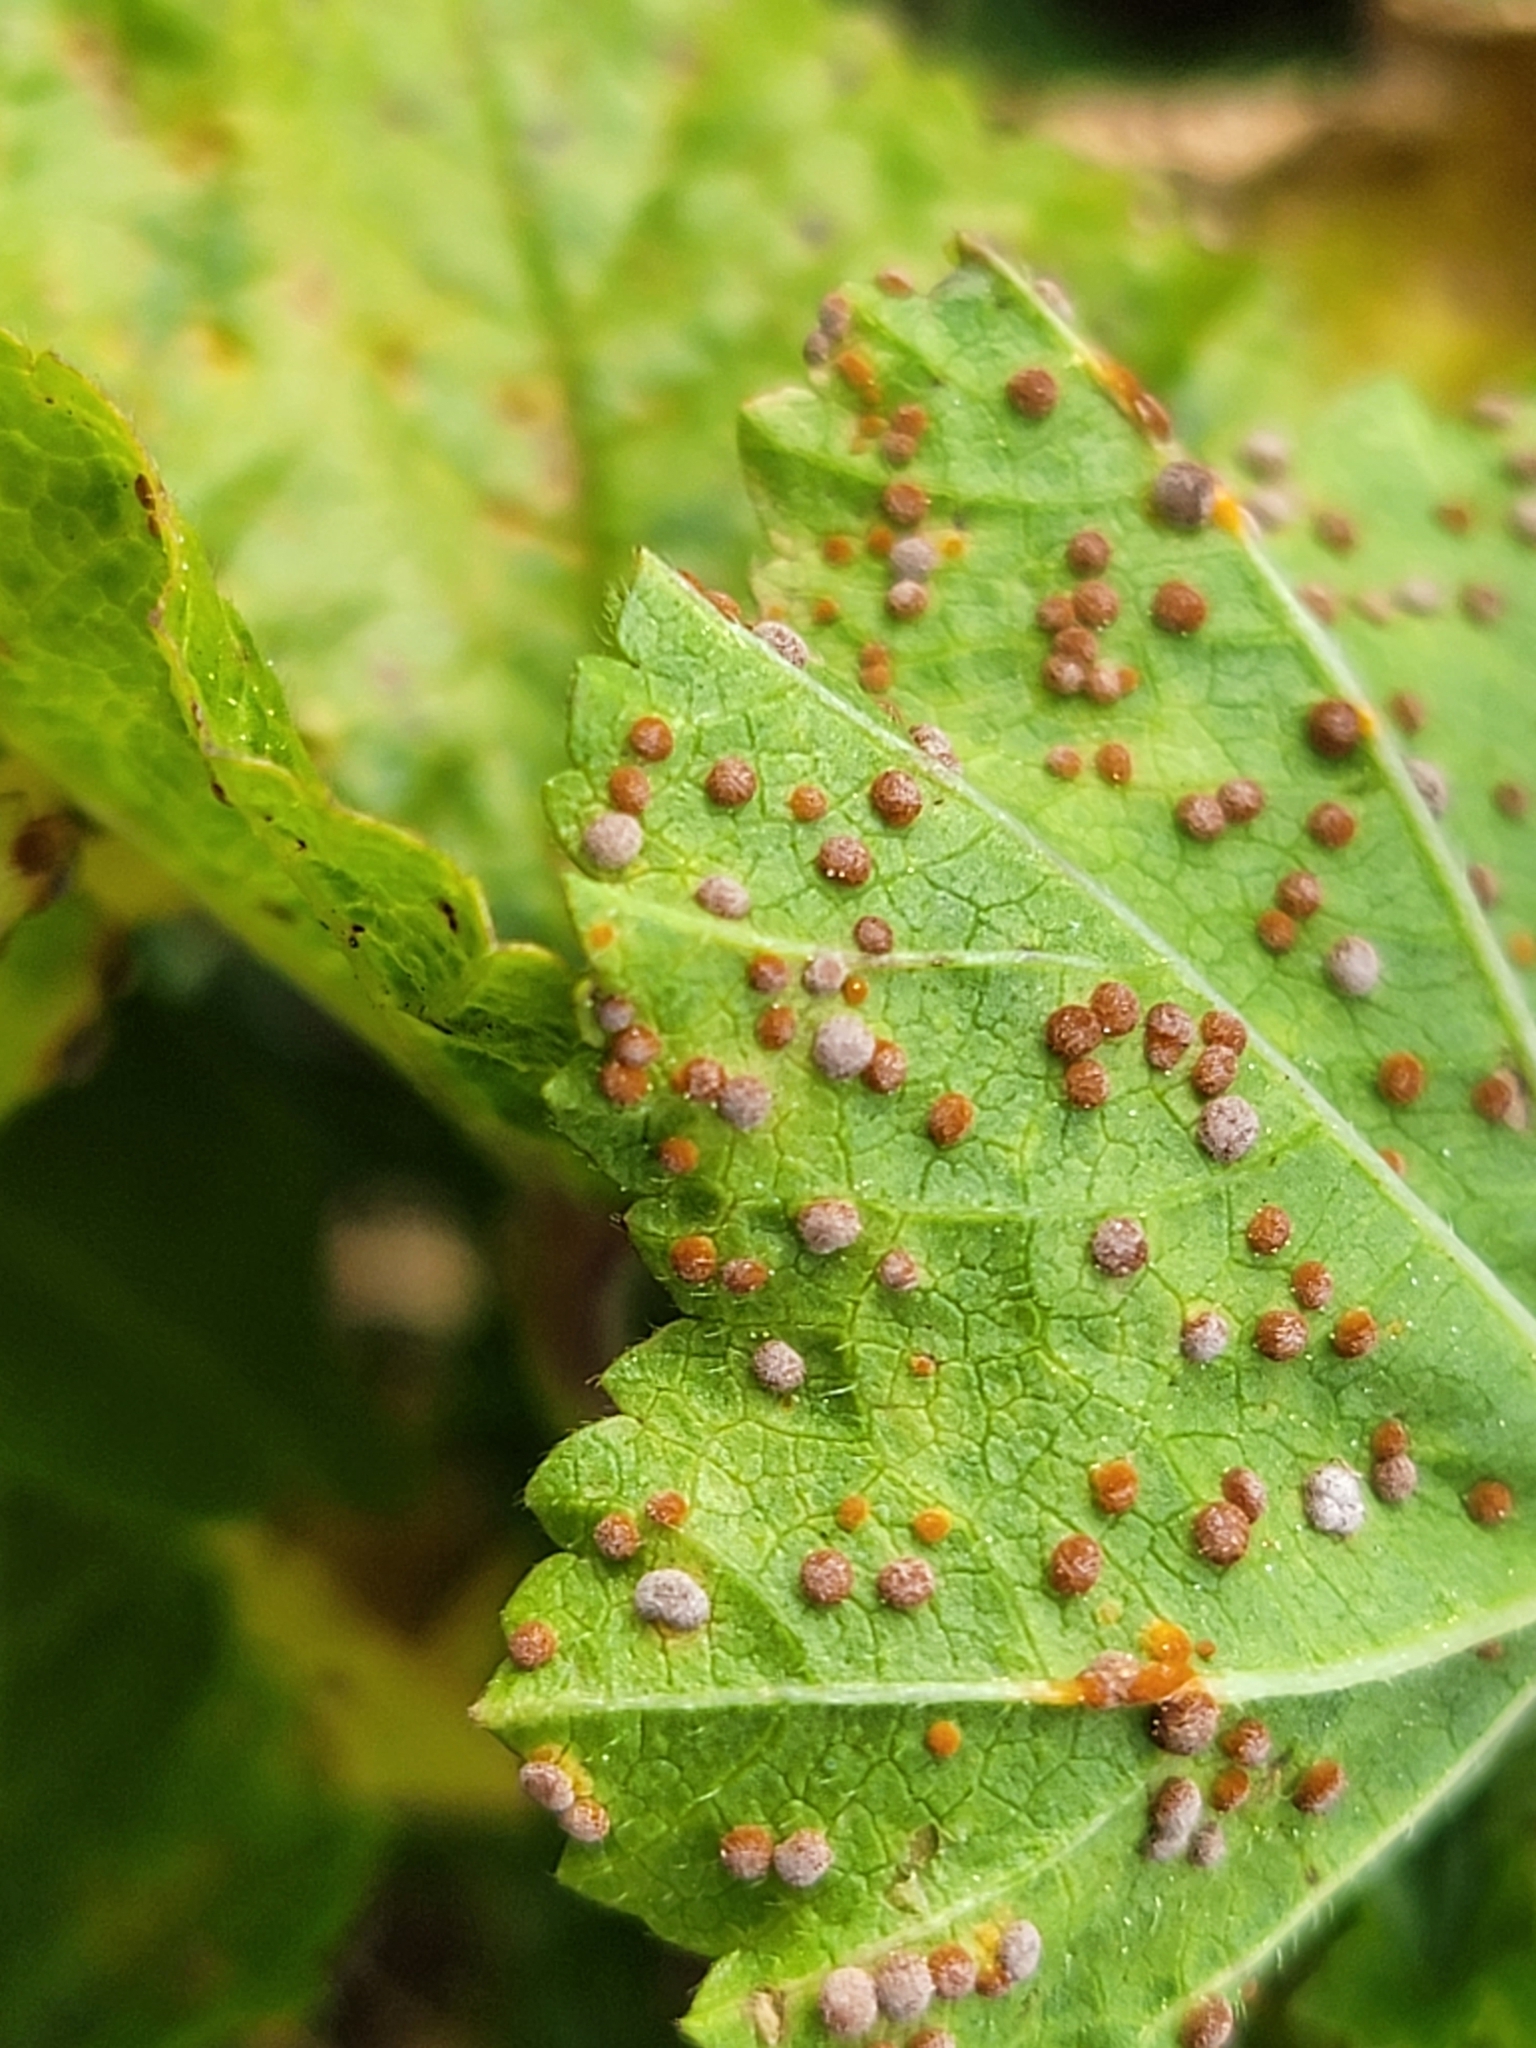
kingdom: Fungi
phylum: Basidiomycota
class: Pucciniomycetes
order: Pucciniales
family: Pucciniaceae
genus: Puccinia
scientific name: Puccinia malvacearum
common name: Hollyhock rust
